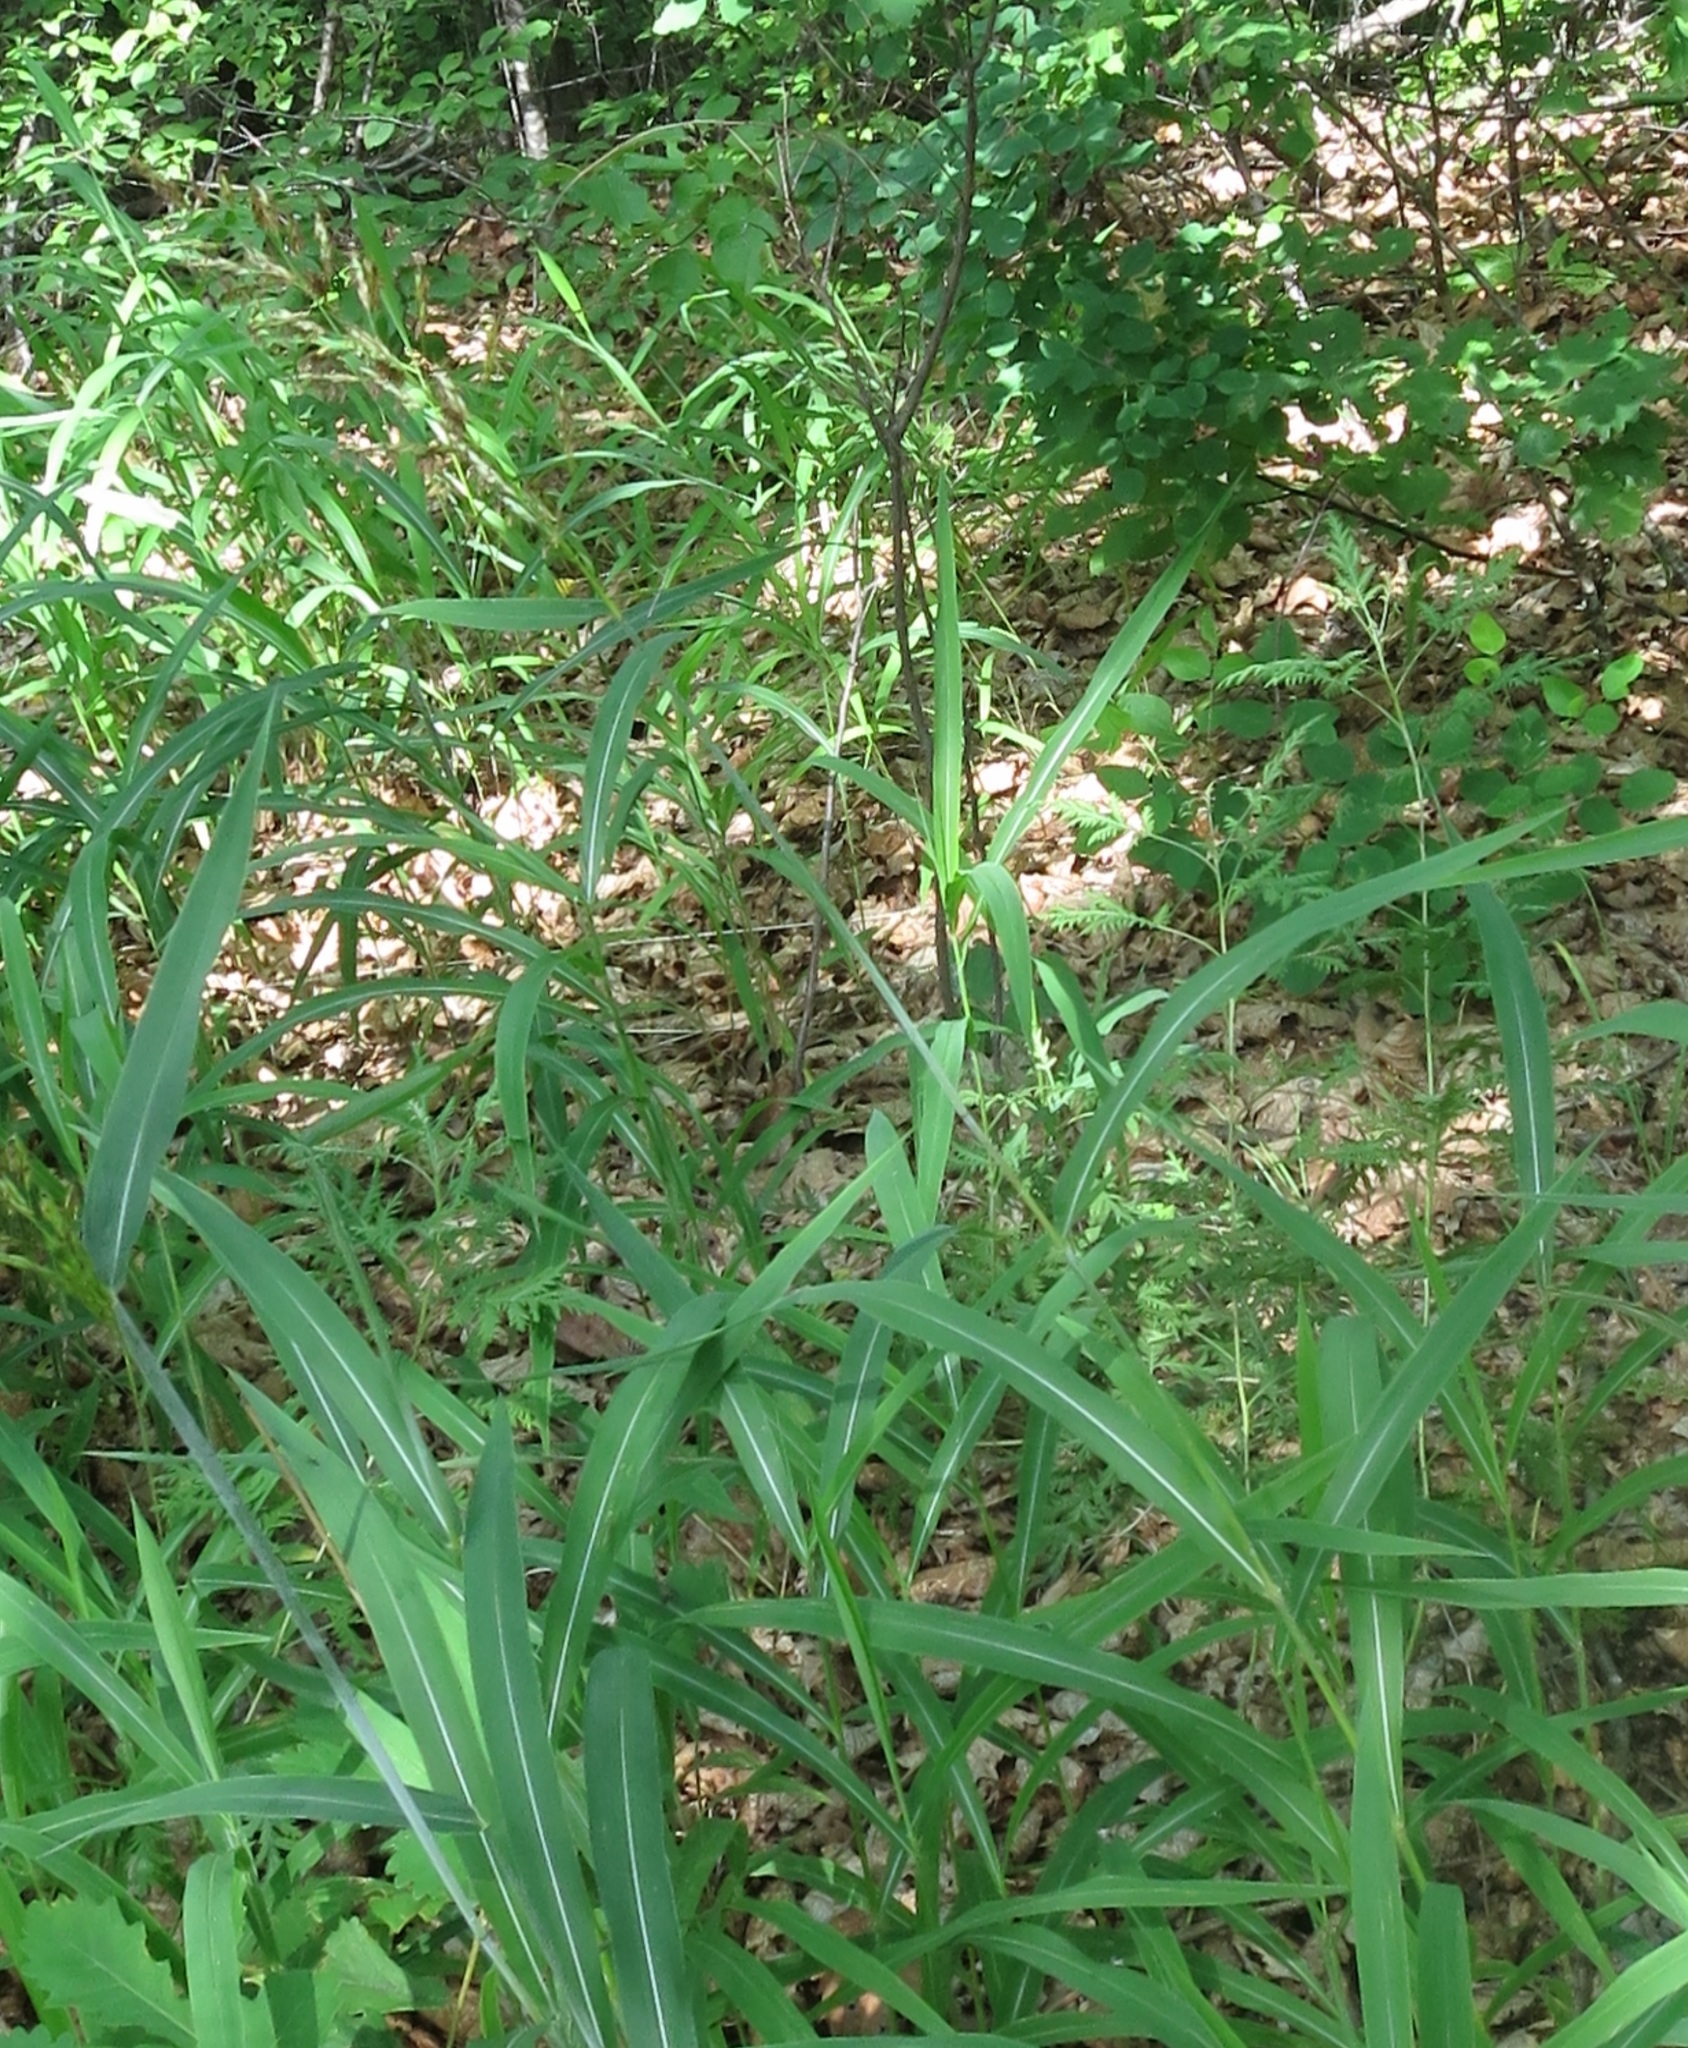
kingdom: Plantae
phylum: Tracheophyta
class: Liliopsida
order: Poales
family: Poaceae
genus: Spodiopogon
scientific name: Spodiopogon sibiricus
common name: Siberian graybeard
